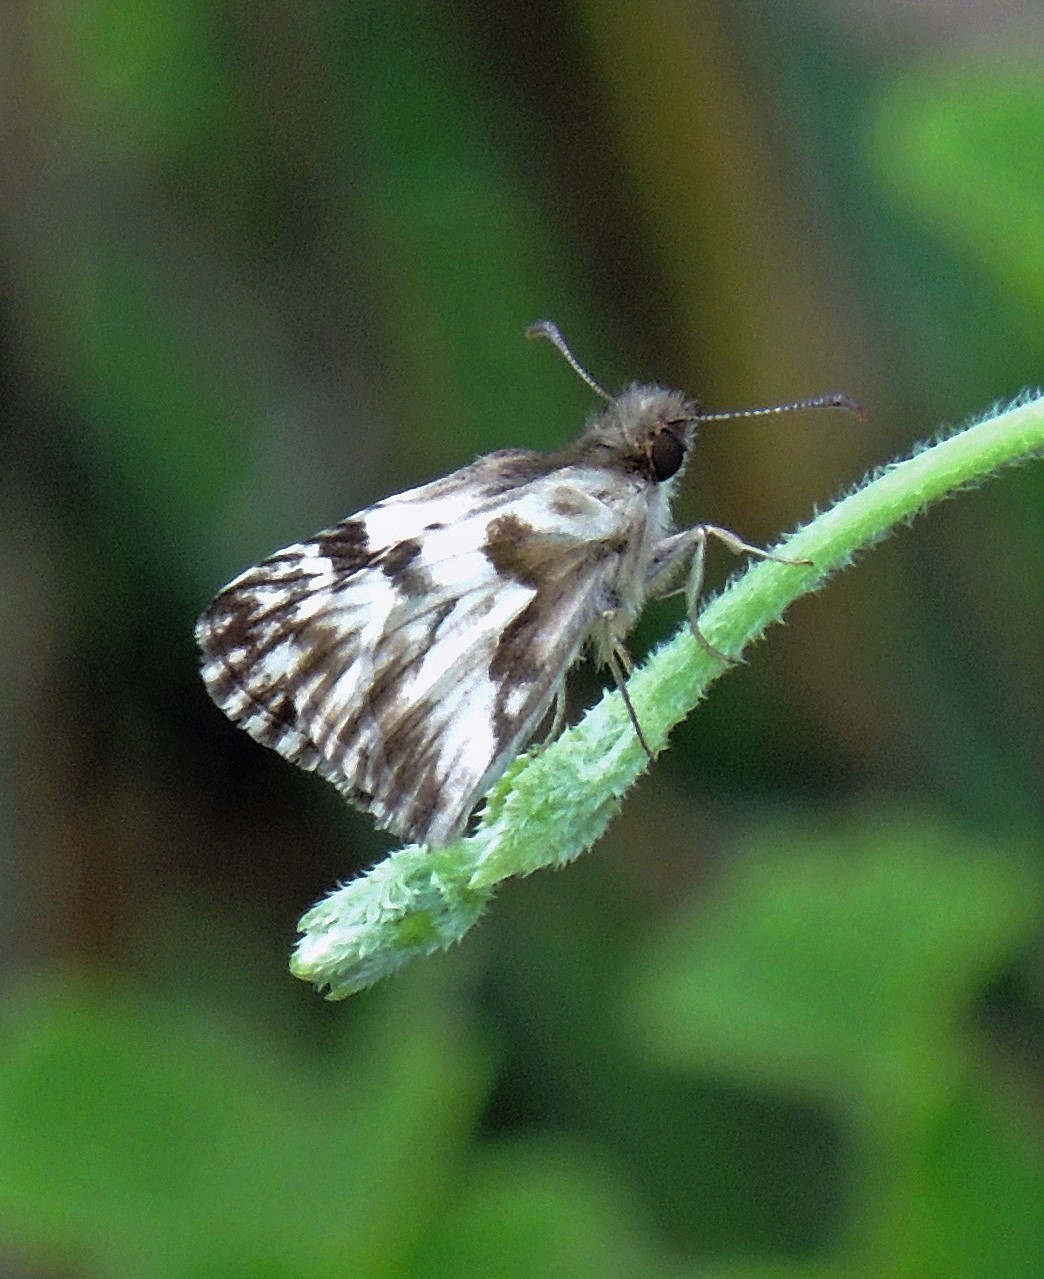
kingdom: Animalia
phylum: Arthropoda
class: Insecta
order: Lepidoptera
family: Hesperiidae
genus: Heliopetes
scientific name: Heliopetes omrina
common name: Stained white-skipper
